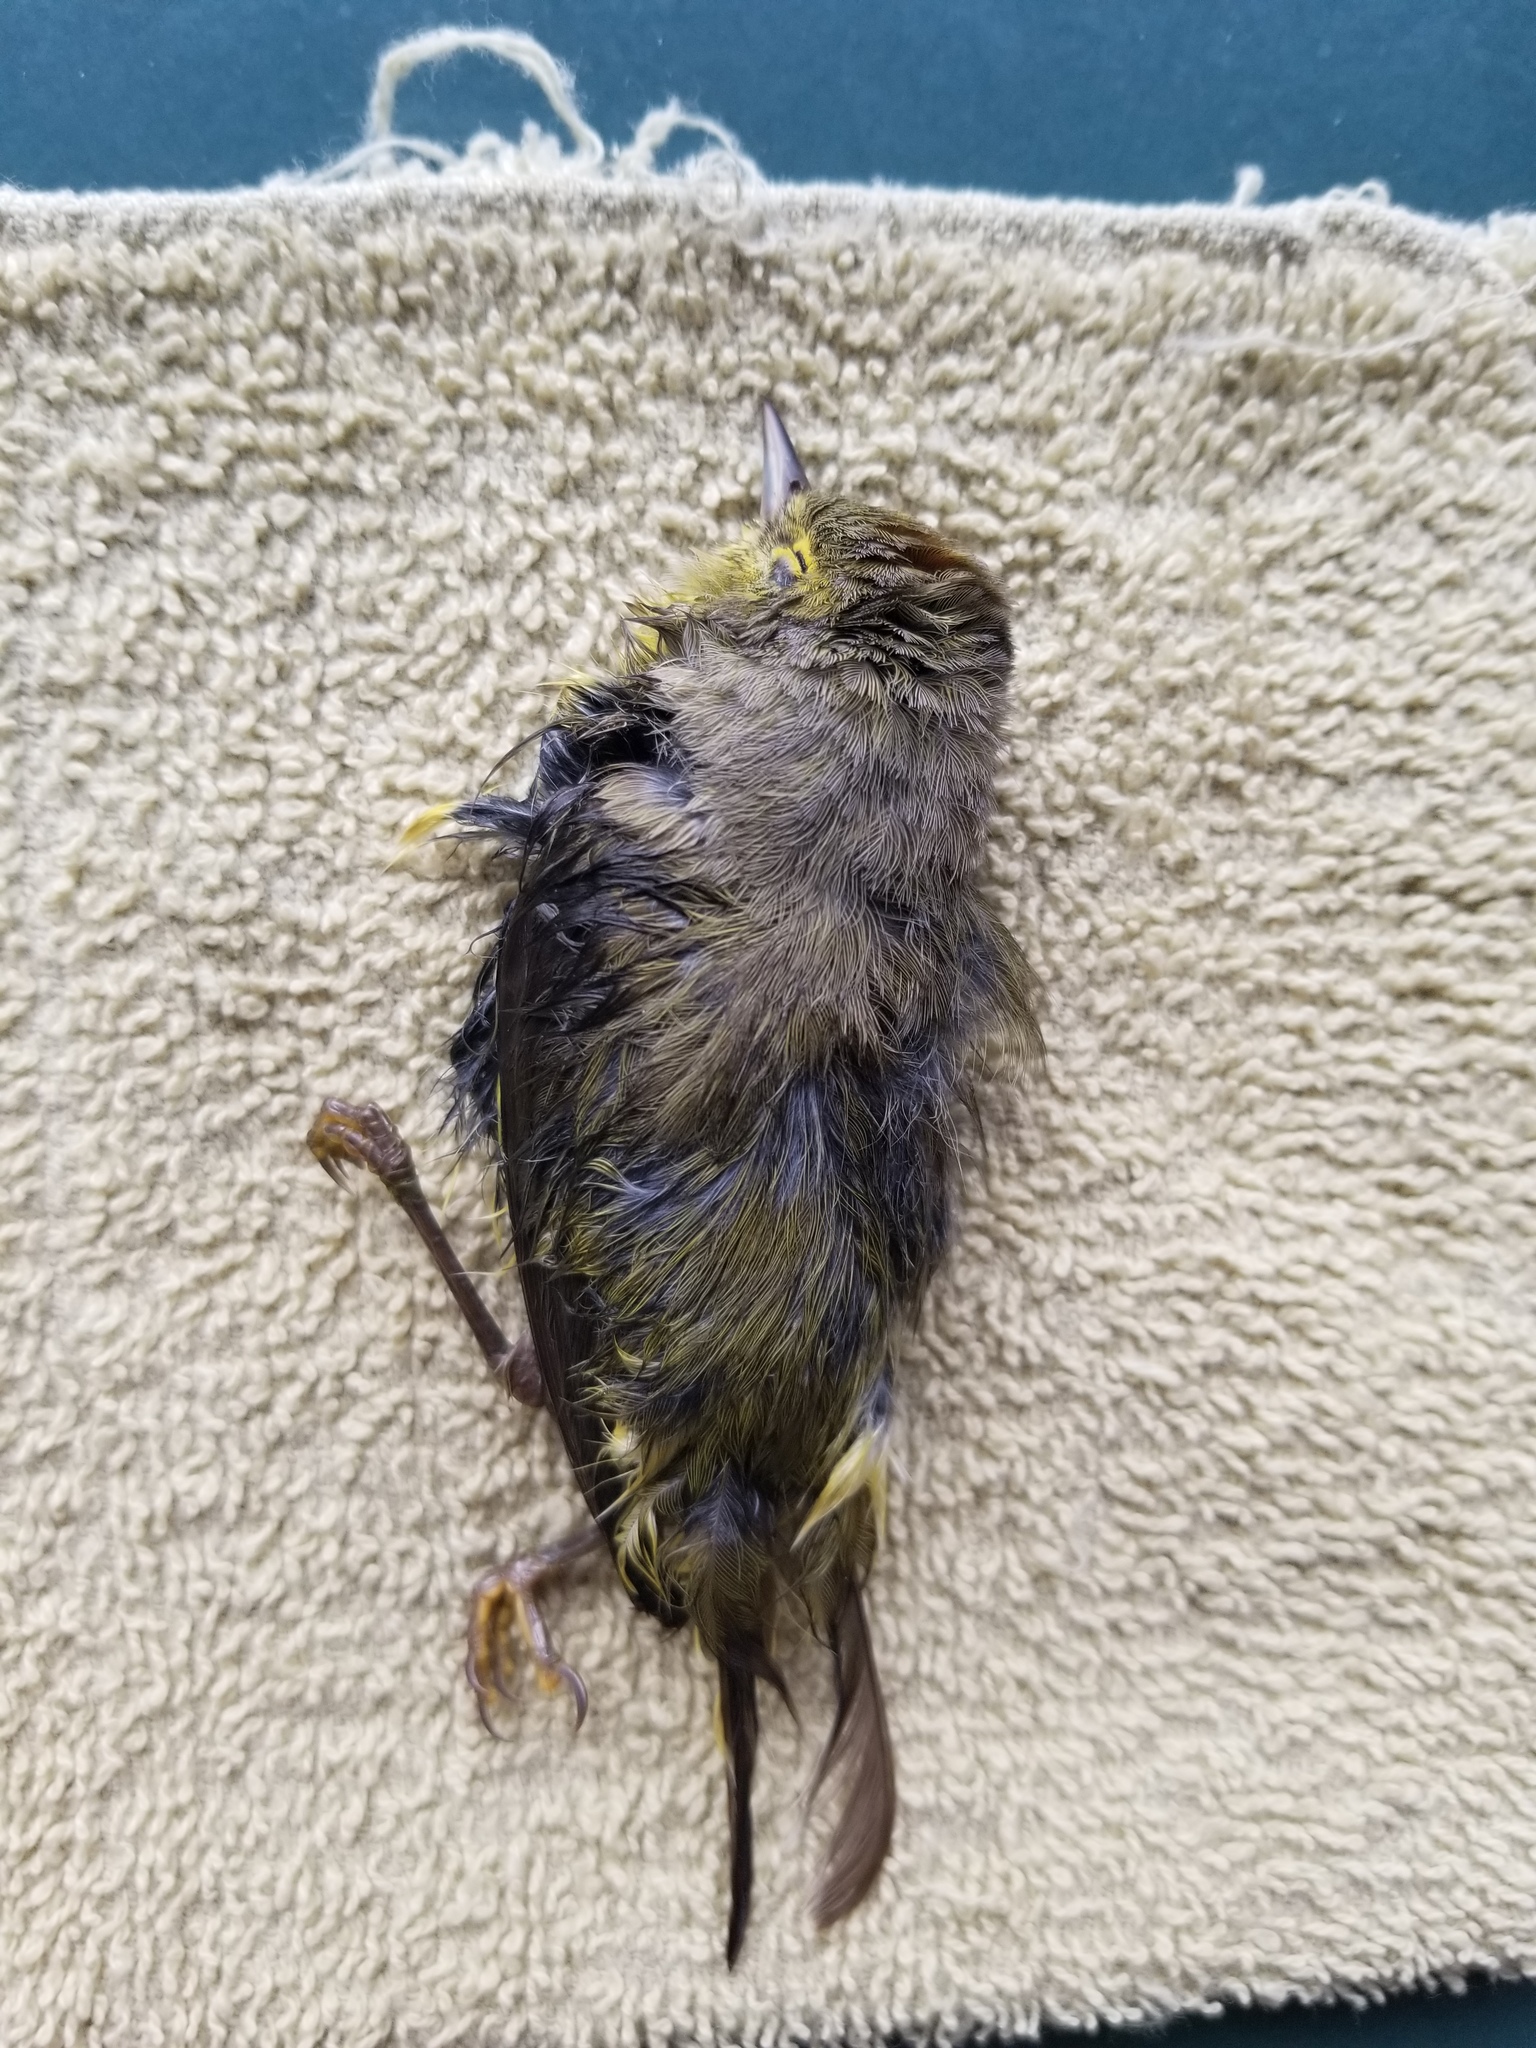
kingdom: Animalia
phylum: Chordata
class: Aves
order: Passeriformes
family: Parulidae
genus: Leiothlypis
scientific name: Leiothlypis celata
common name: Orange-crowned warbler
